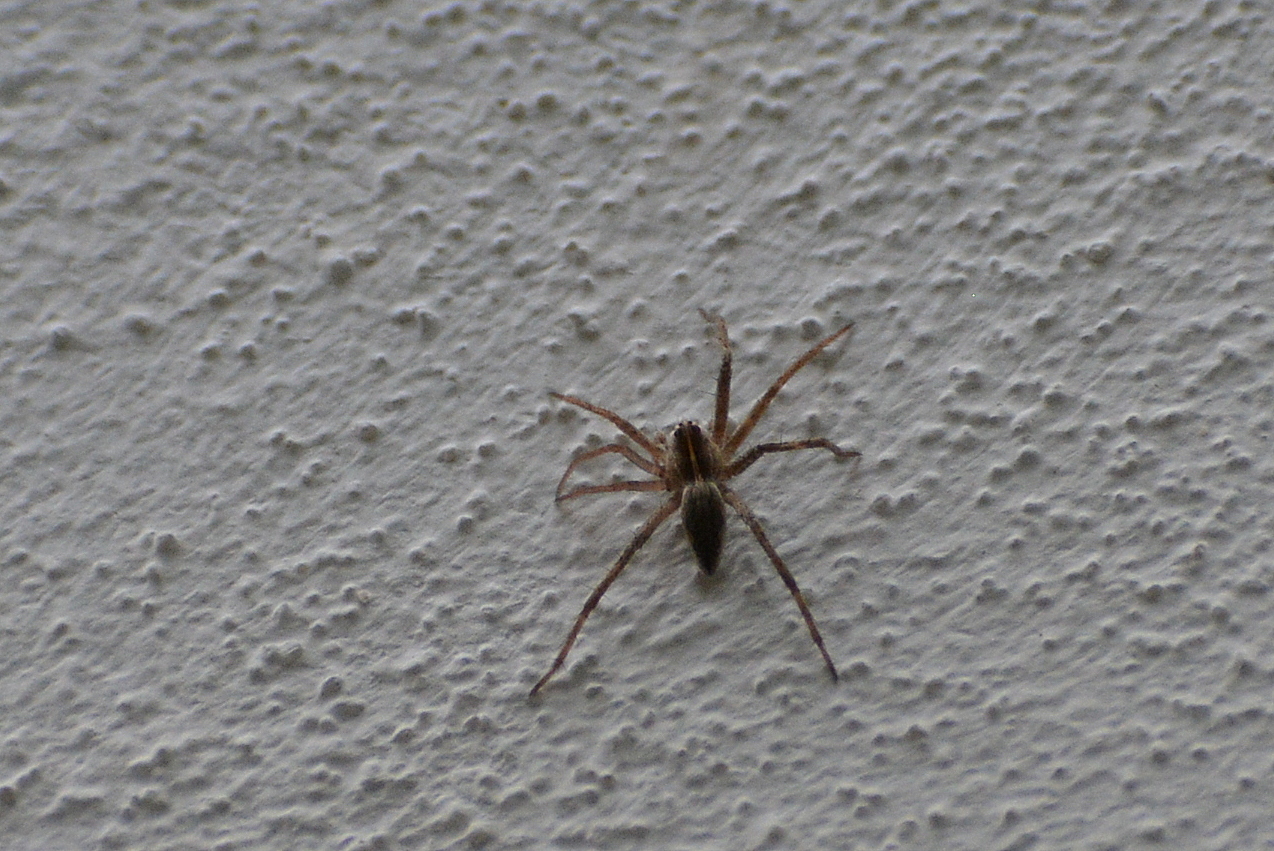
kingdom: Animalia
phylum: Arthropoda
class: Arachnida
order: Araneae
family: Pisauridae
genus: Pisaura
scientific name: Pisaura mirabilis
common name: Tent spider
